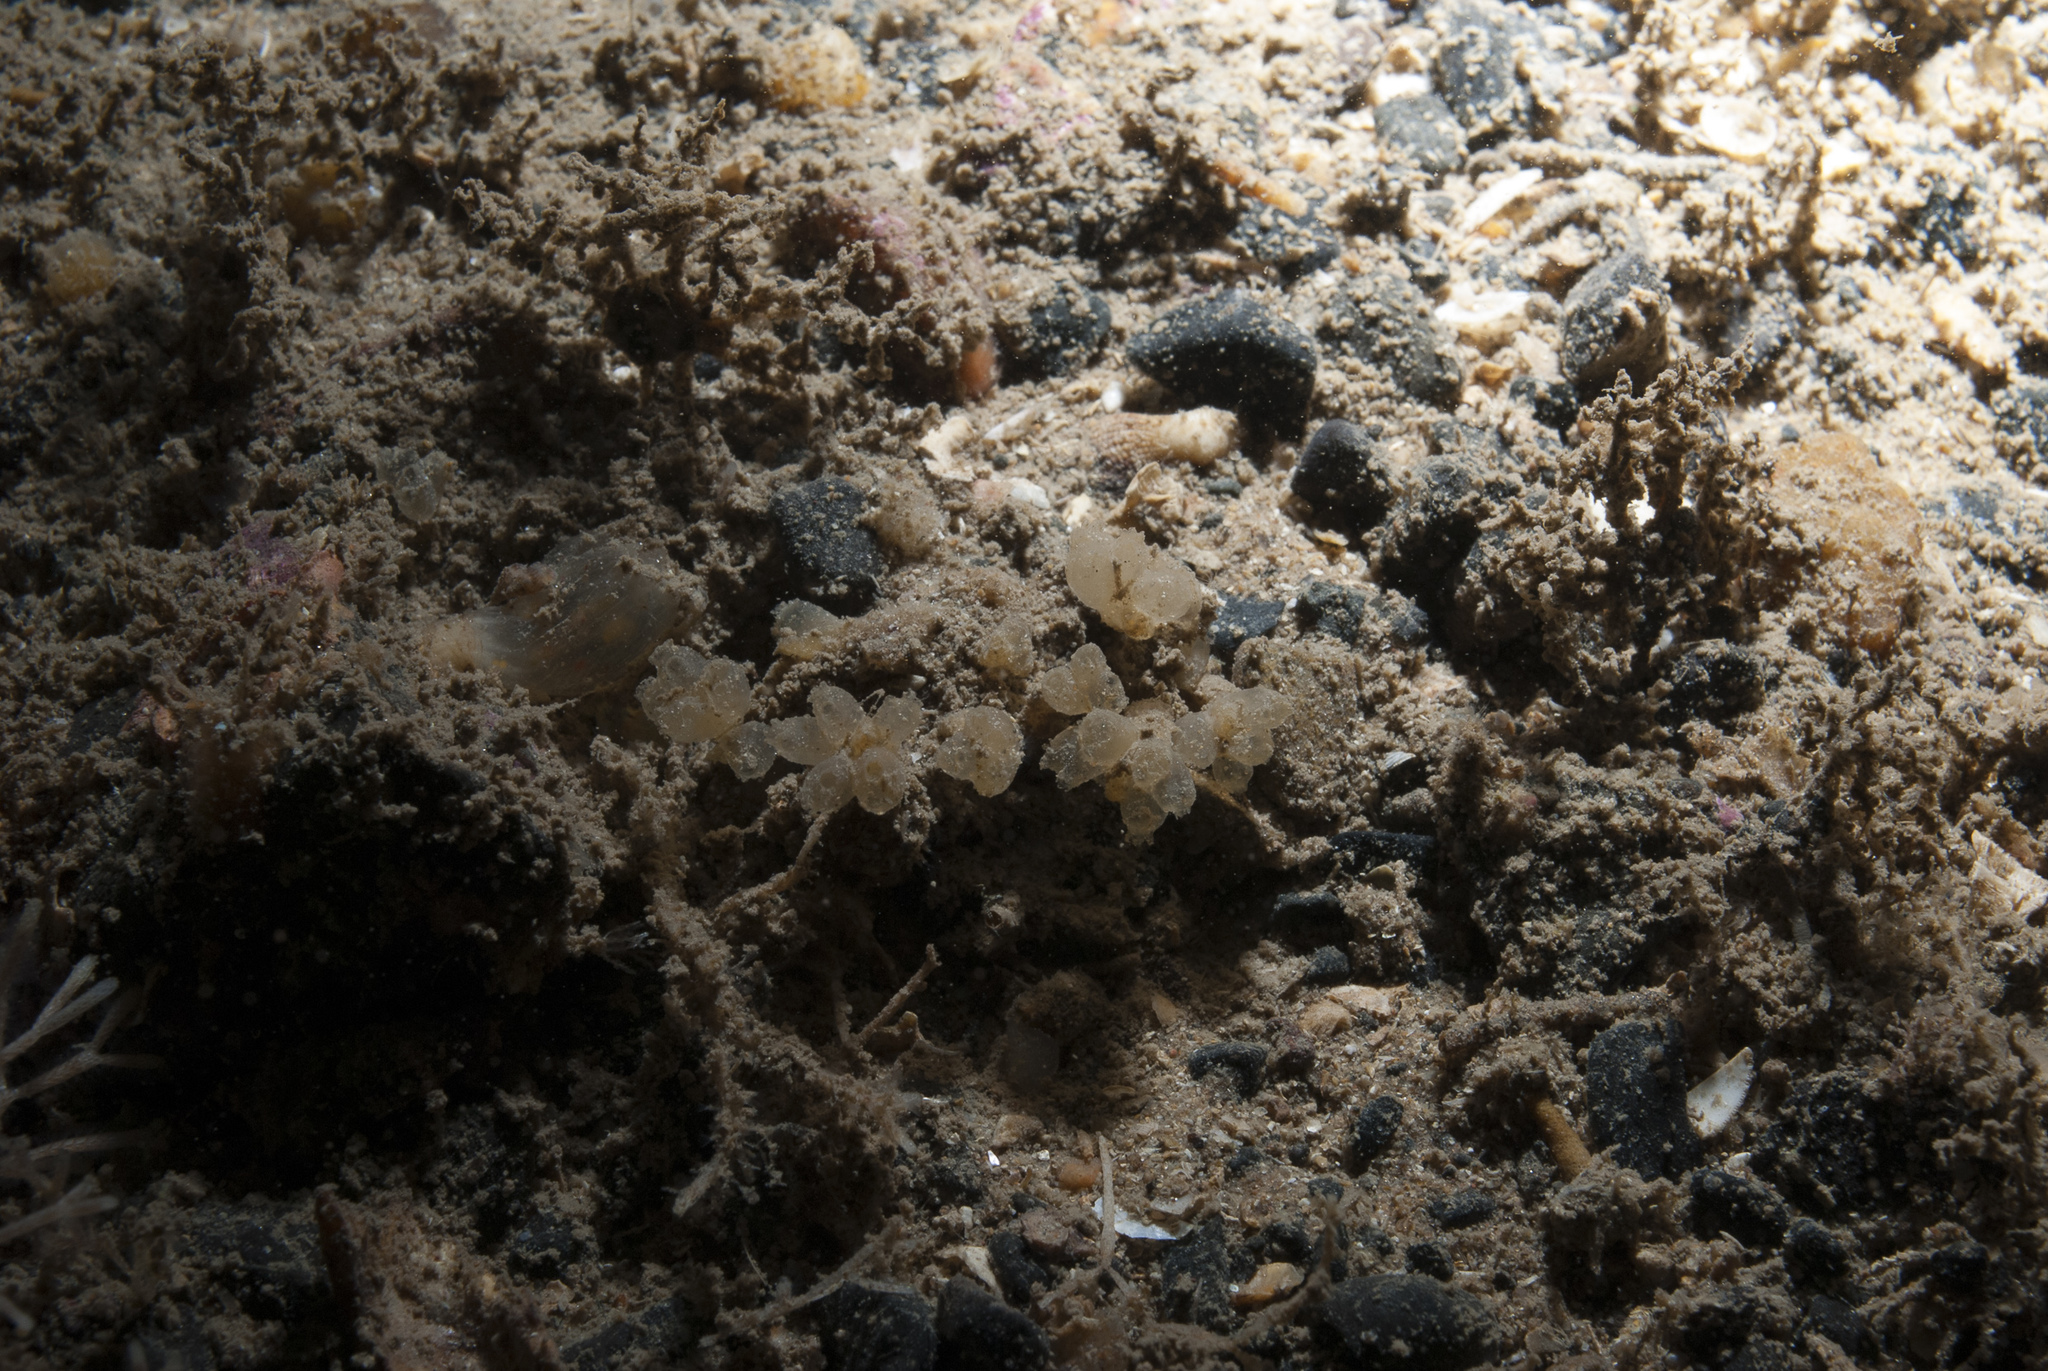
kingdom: Animalia
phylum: Chordata
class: Ascidiacea
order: Aplousobranchia
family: Polycitoridae
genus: Archidistoma
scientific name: Archidistoma aggregatum
